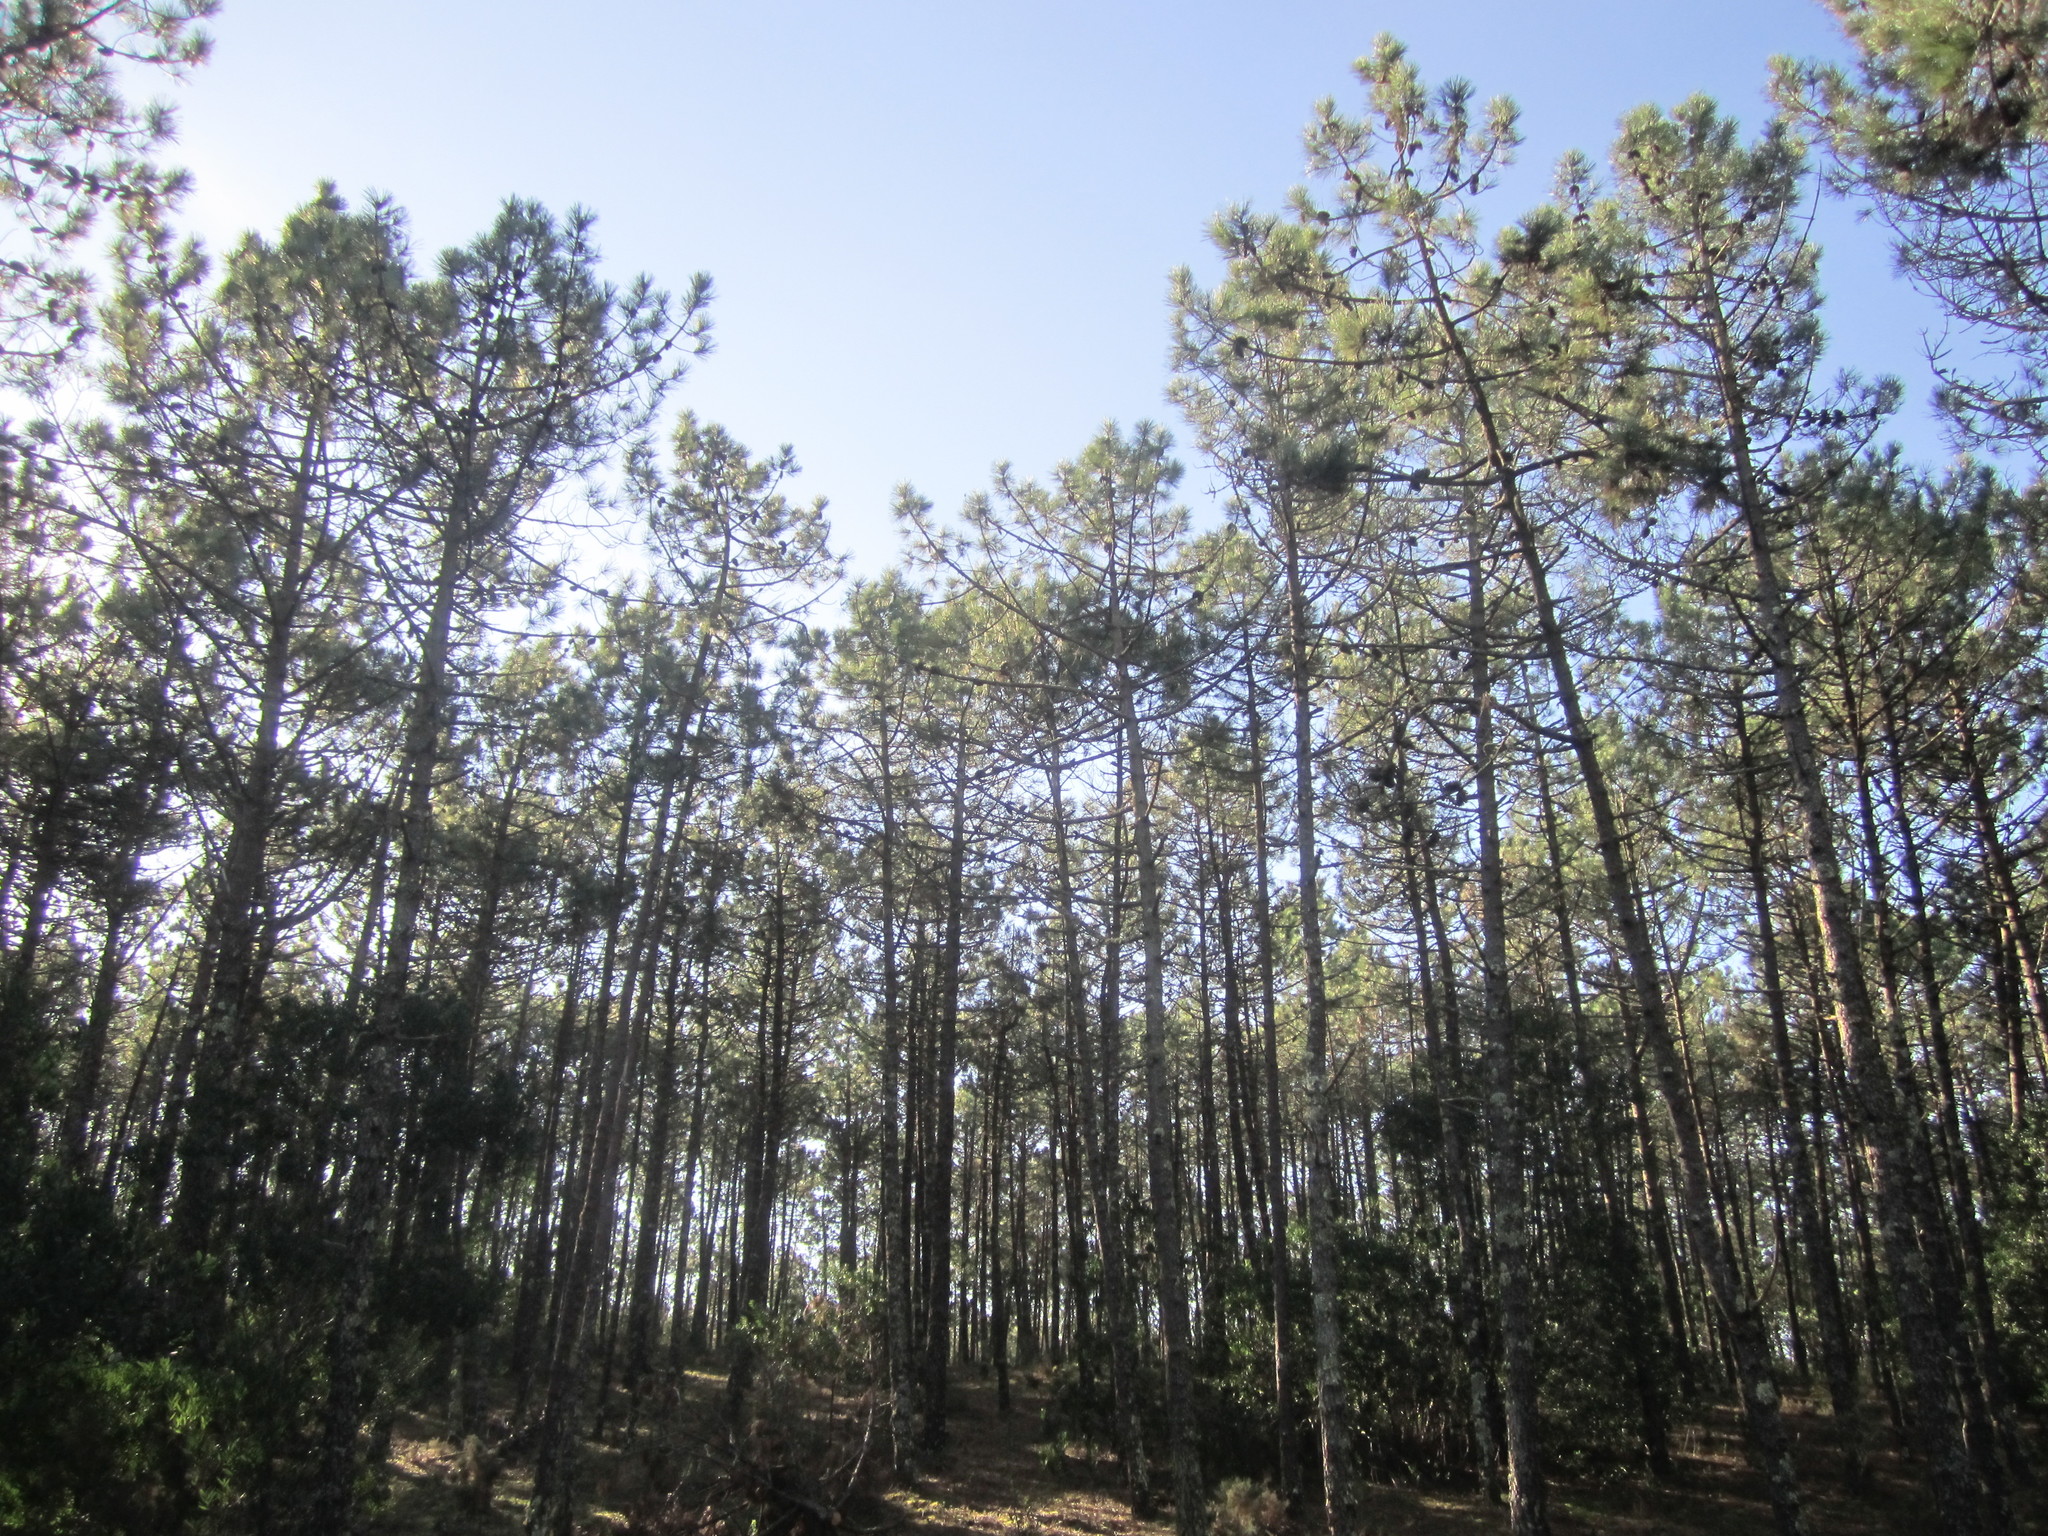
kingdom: Plantae
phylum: Tracheophyta
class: Pinopsida
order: Pinales
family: Pinaceae
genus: Pinus
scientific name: Pinus pinaster
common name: Maritime pine
